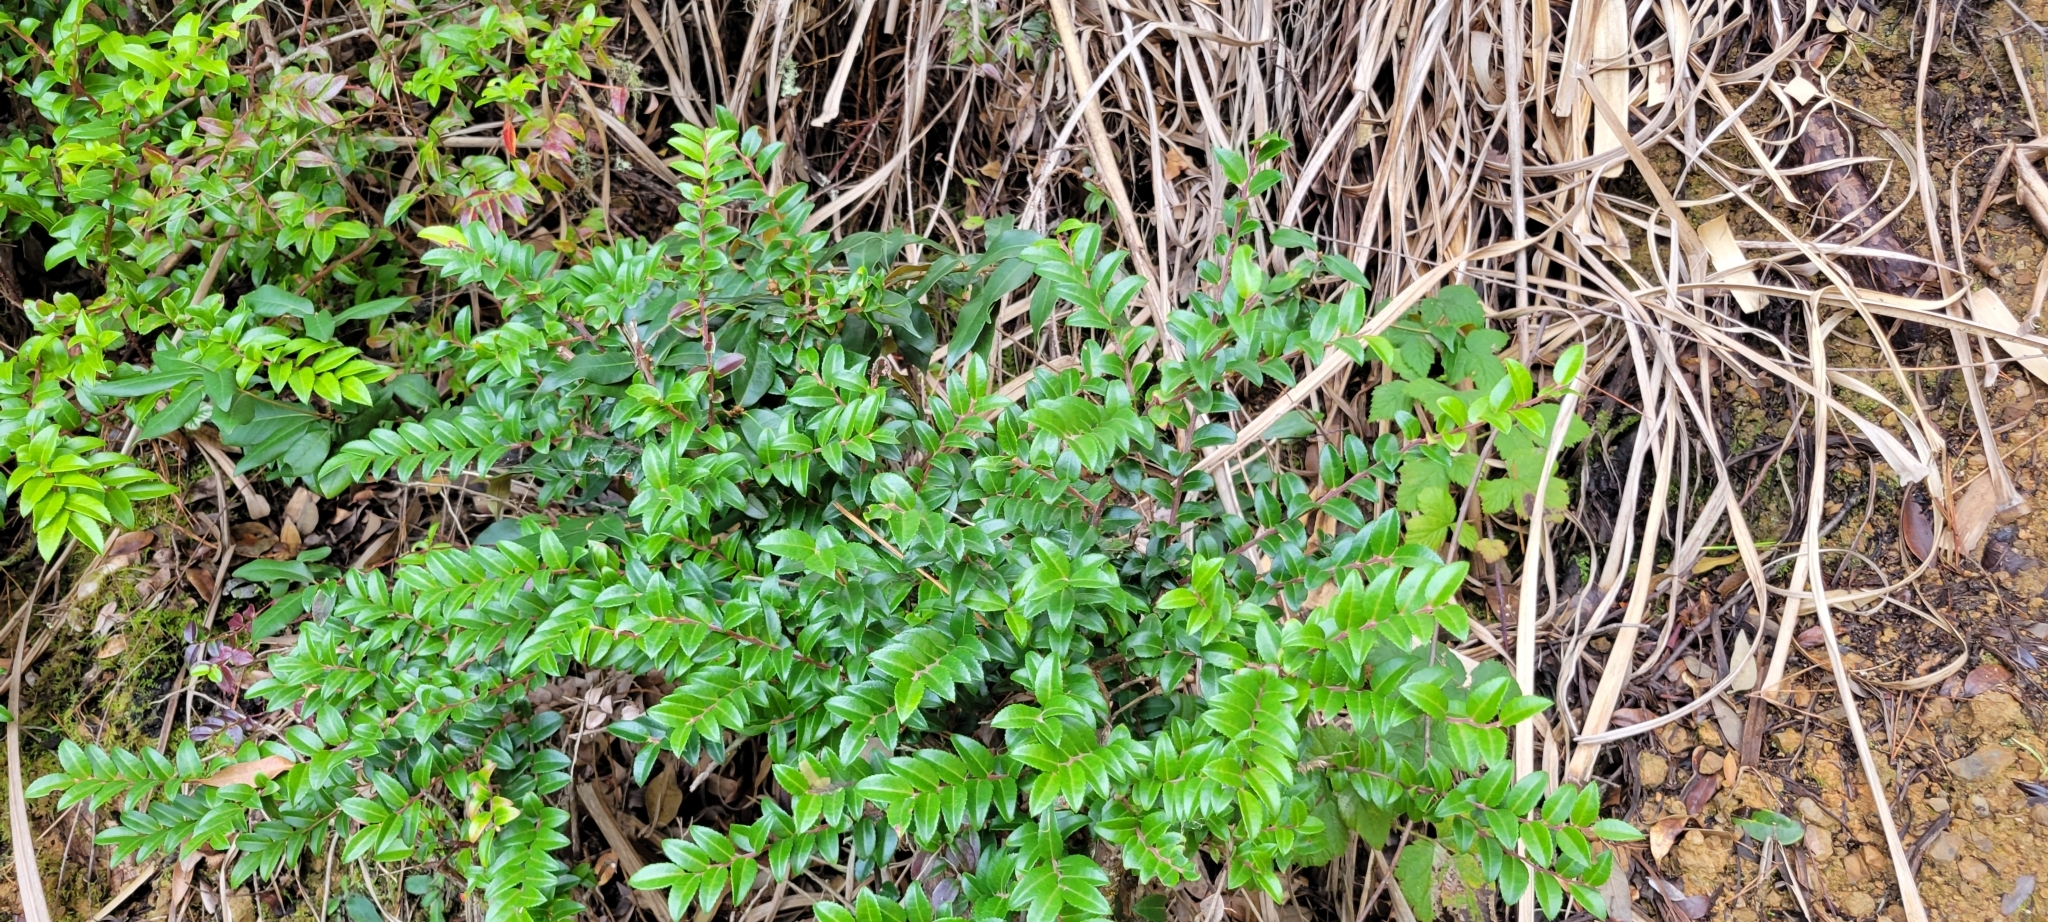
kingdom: Plantae
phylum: Tracheophyta
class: Magnoliopsida
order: Ericales
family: Ericaceae
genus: Vaccinium
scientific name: Vaccinium ovatum
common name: California-huckleberry
